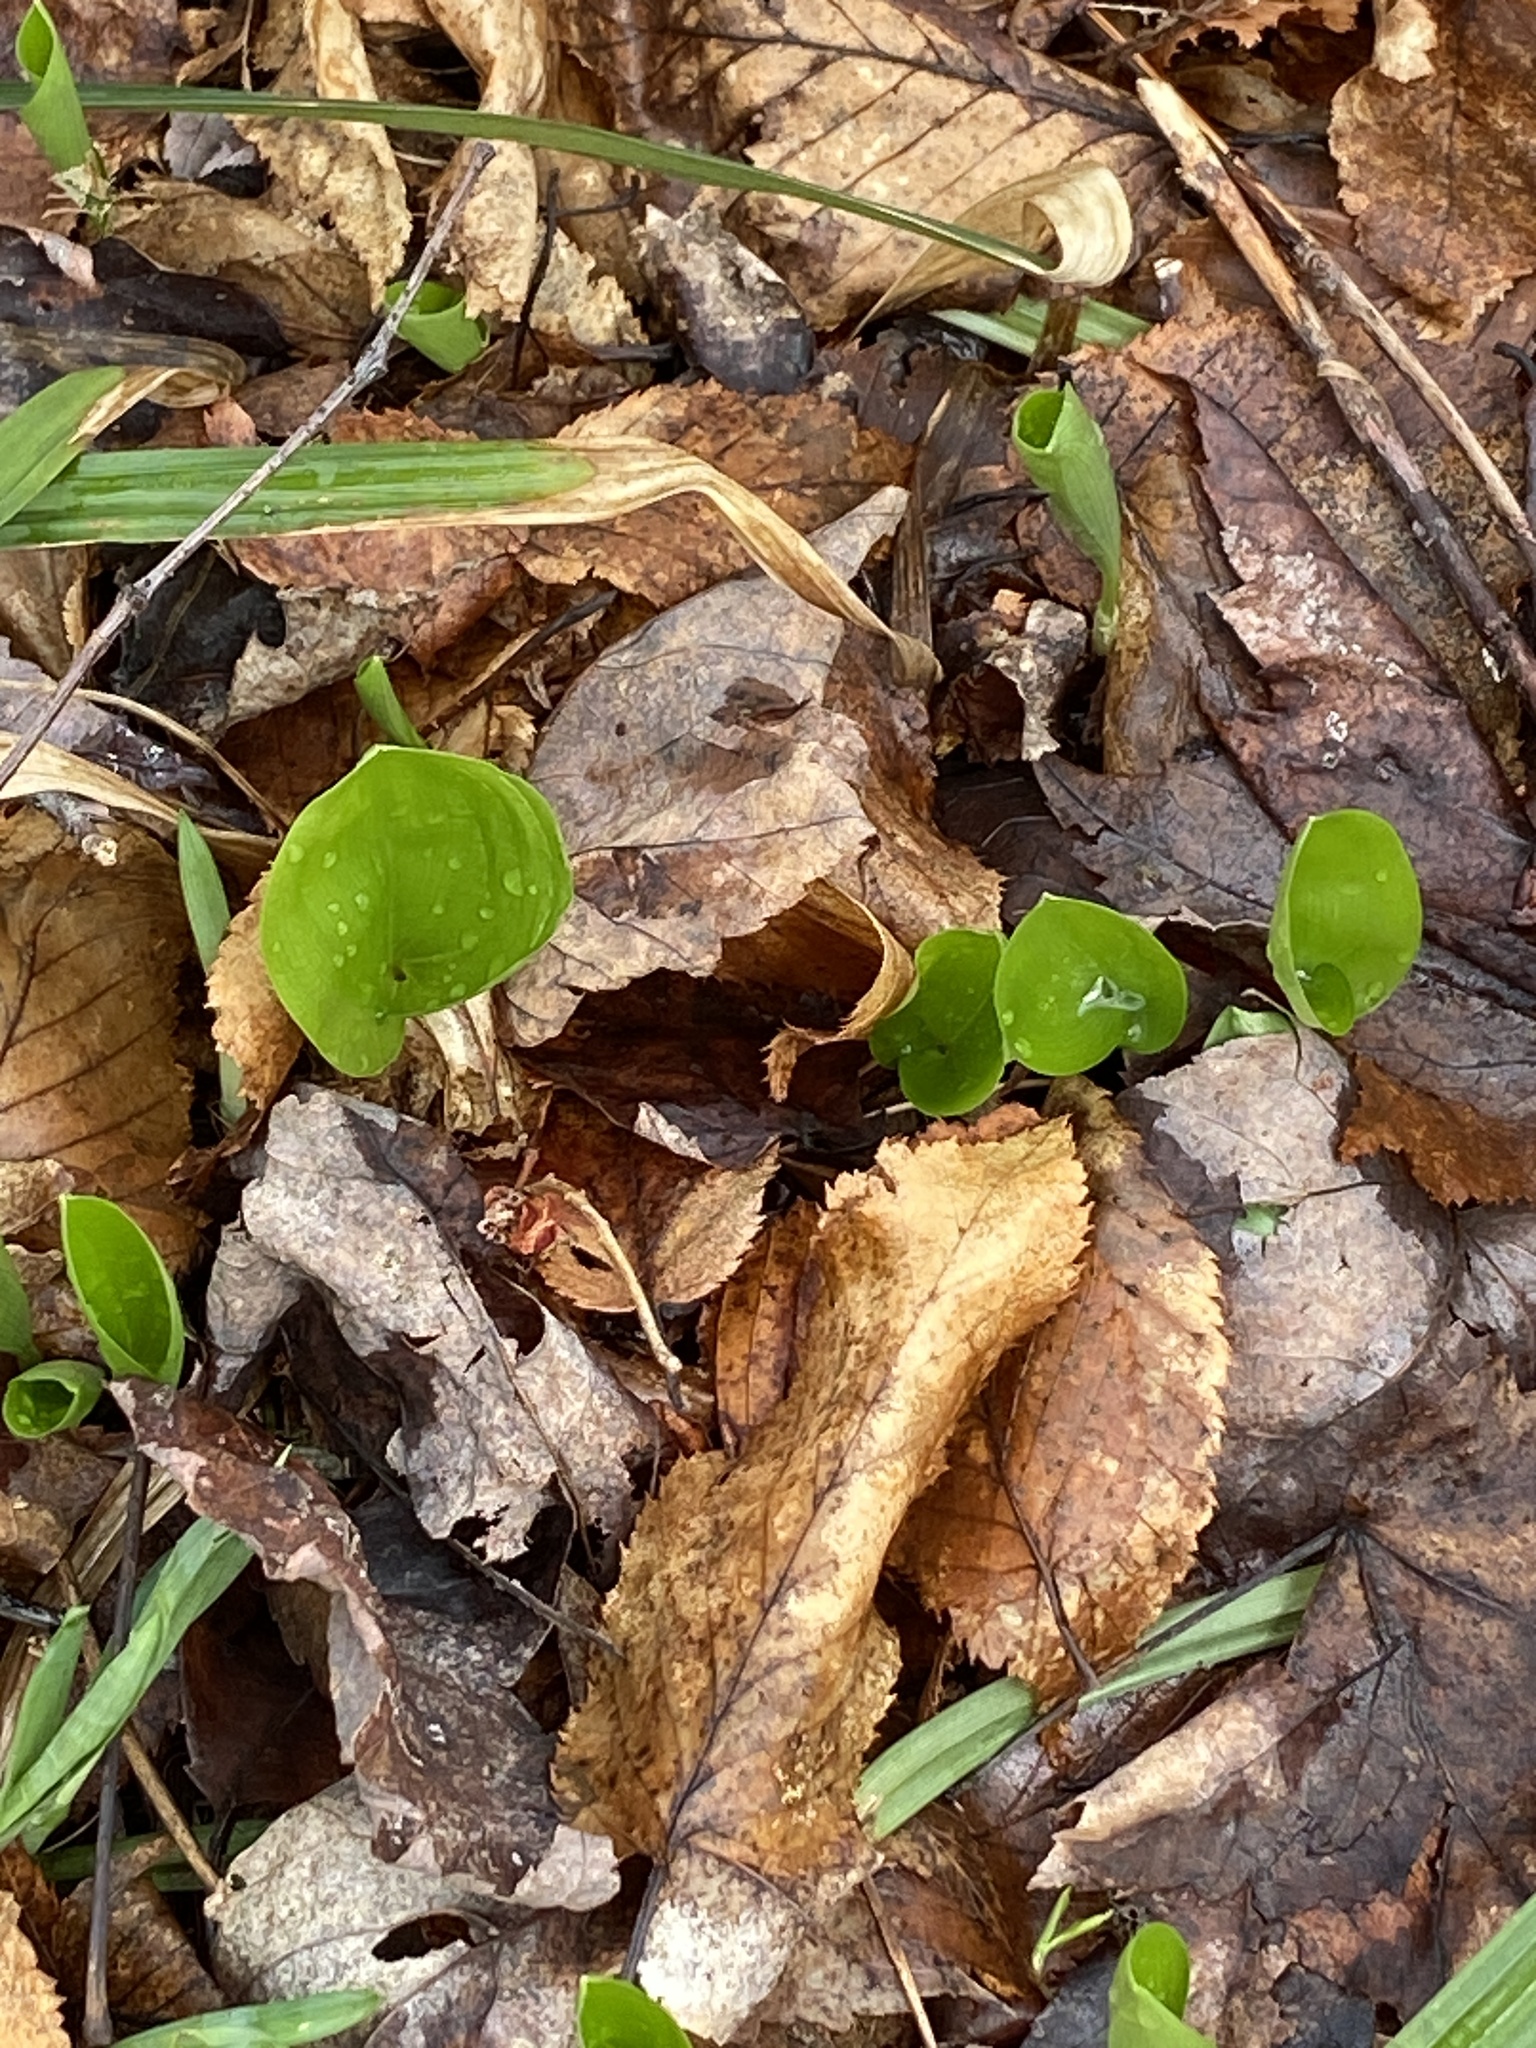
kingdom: Plantae
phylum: Tracheophyta
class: Liliopsida
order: Asparagales
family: Asparagaceae
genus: Maianthemum
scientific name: Maianthemum canadense
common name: False lily-of-the-valley
